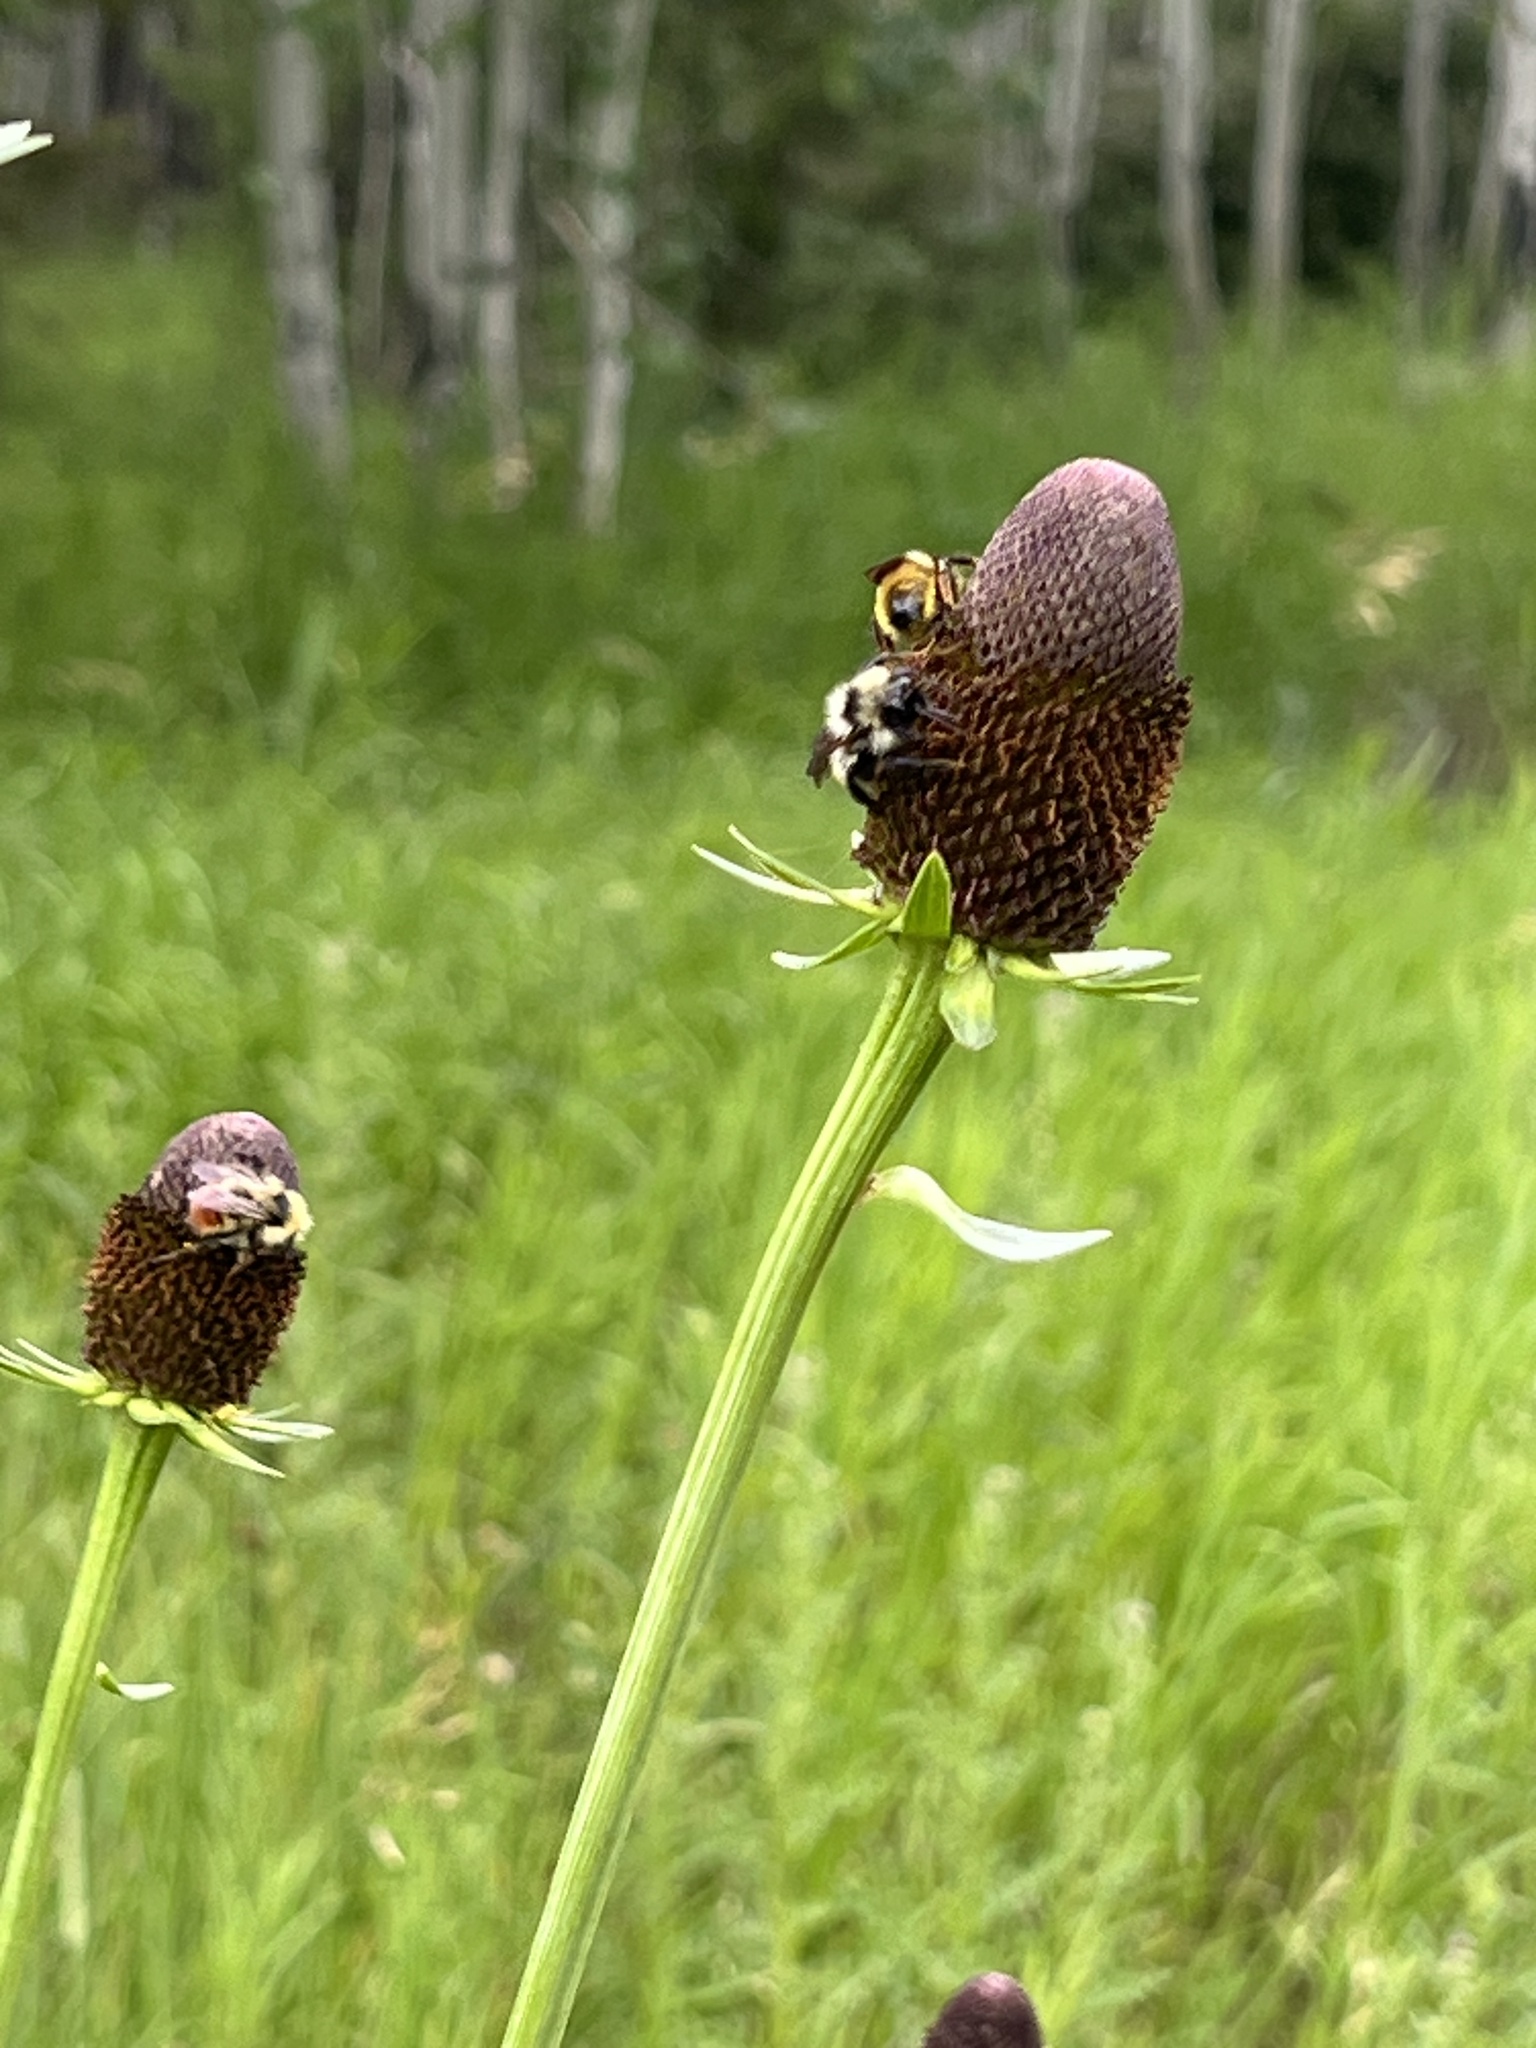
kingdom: Plantae
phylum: Tracheophyta
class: Magnoliopsida
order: Asterales
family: Asteraceae
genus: Rudbeckia
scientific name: Rudbeckia occidentalis
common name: Western coneflower
